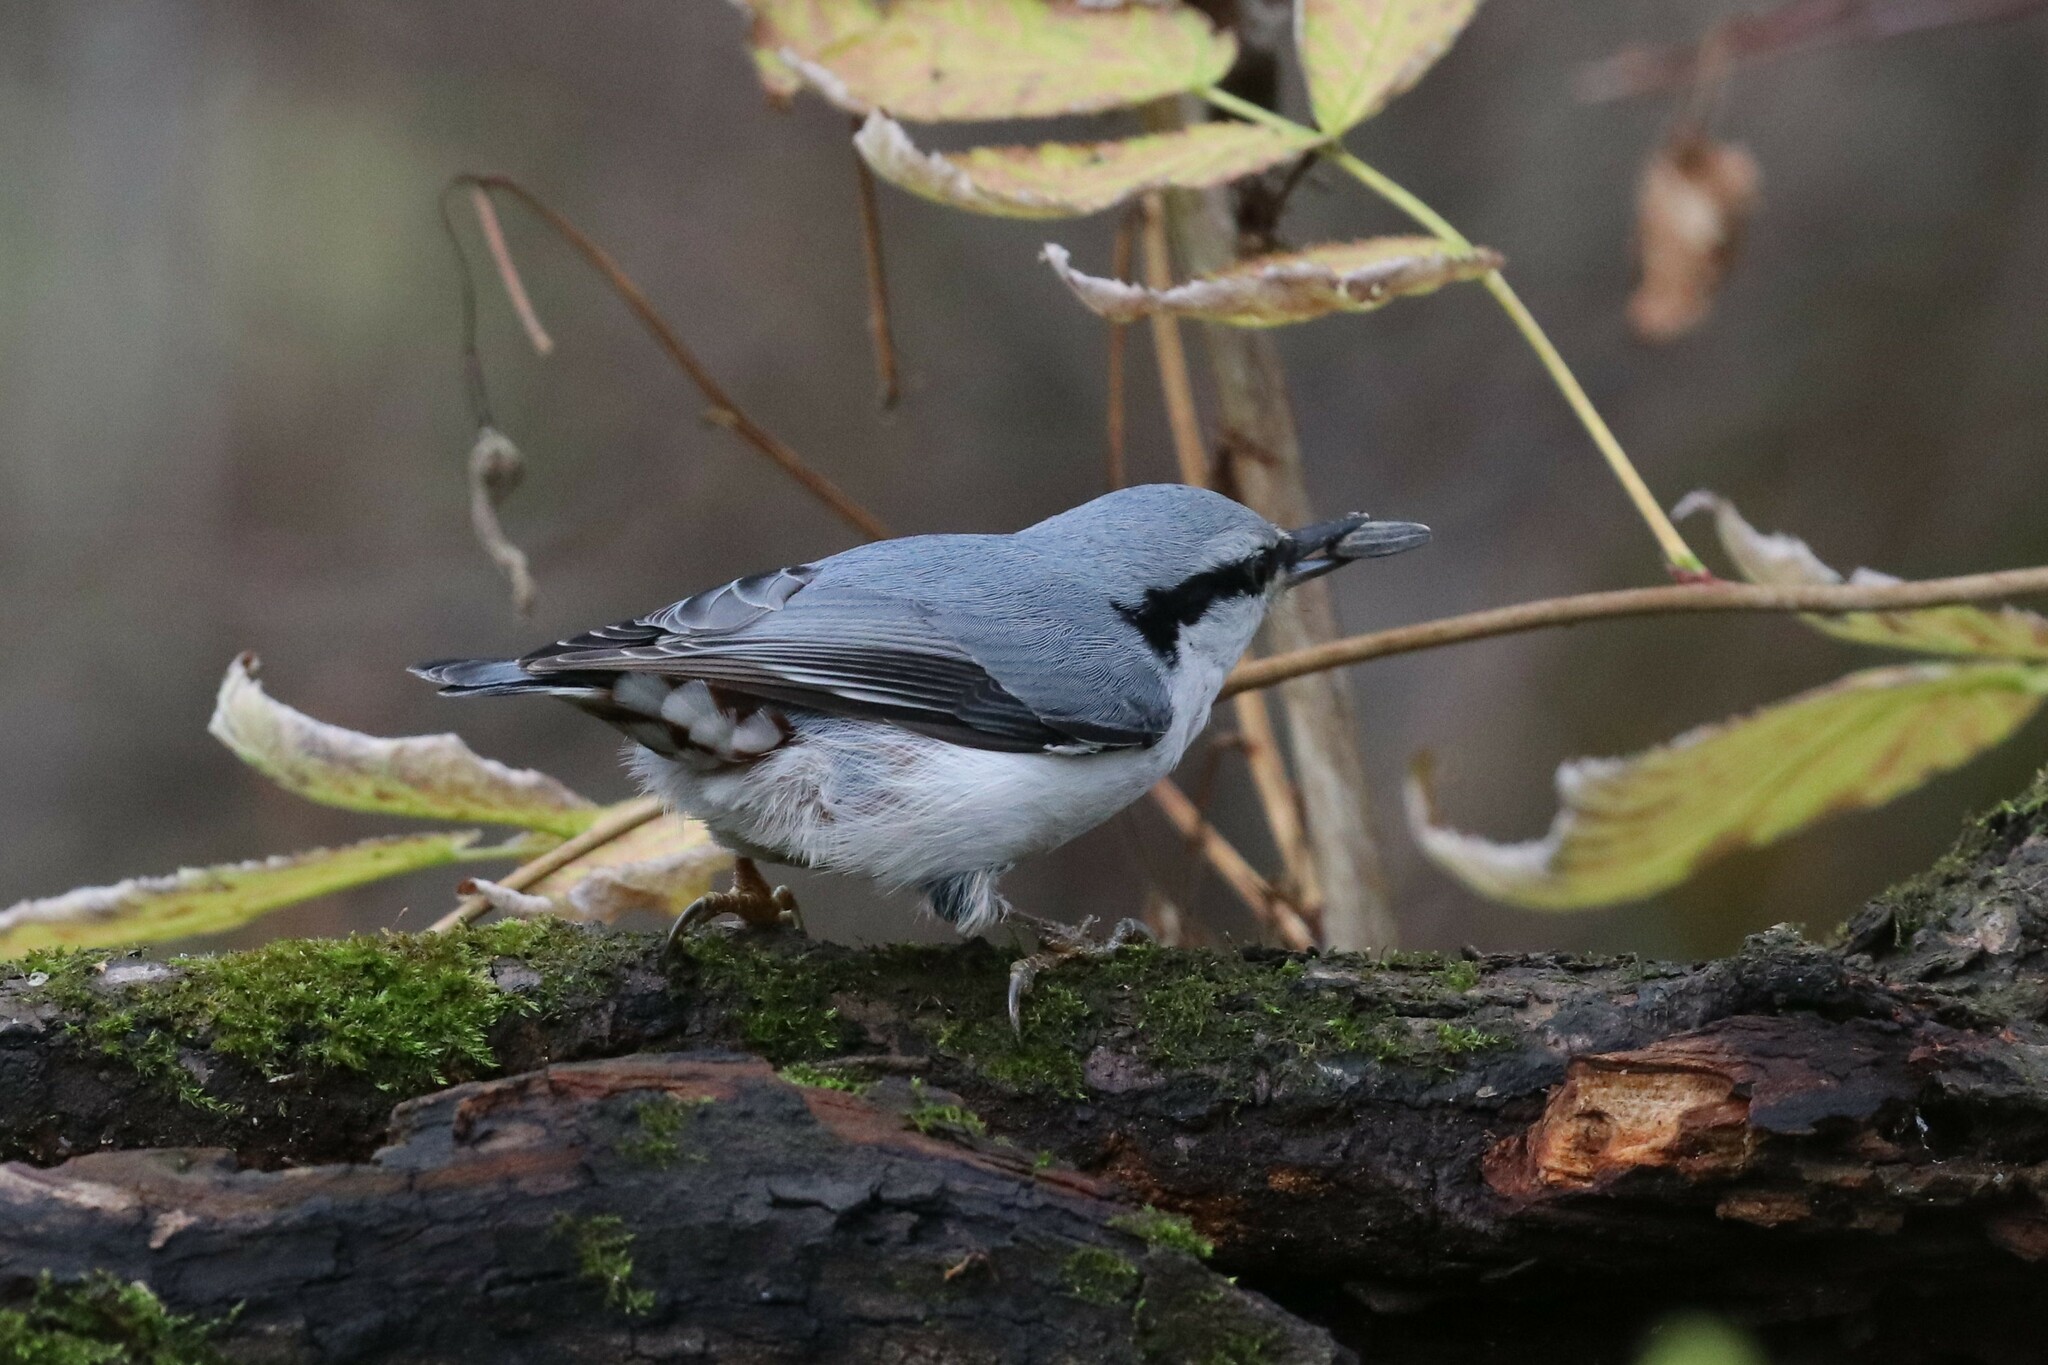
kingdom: Animalia
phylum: Chordata
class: Aves
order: Passeriformes
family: Sittidae
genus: Sitta
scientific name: Sitta europaea
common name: Eurasian nuthatch
